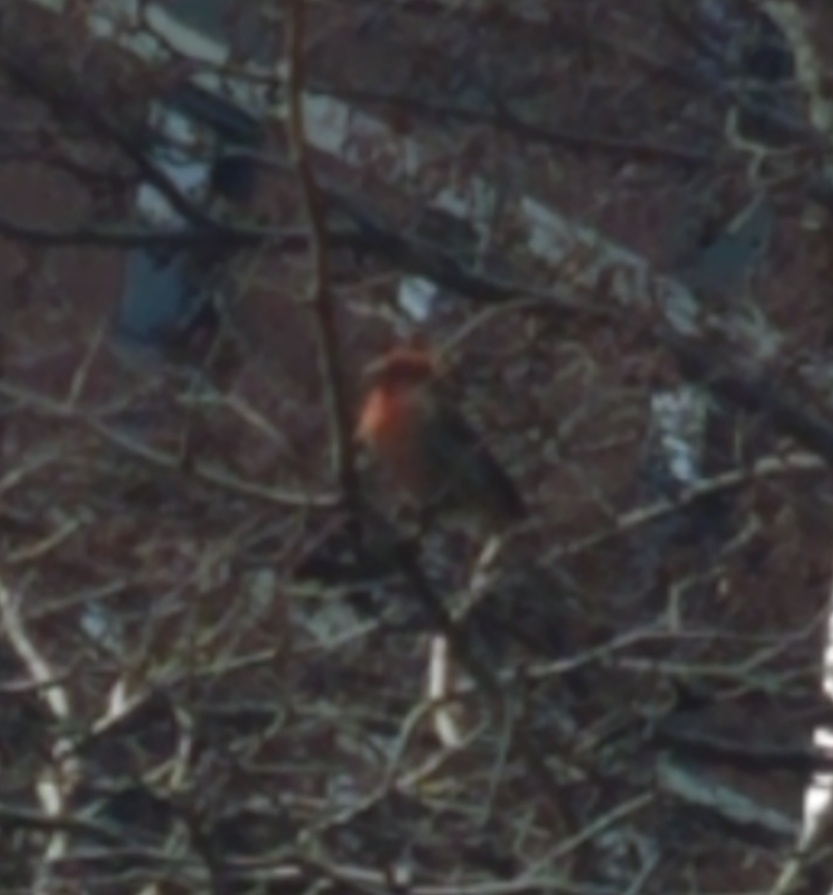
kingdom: Animalia
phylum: Chordata
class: Aves
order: Passeriformes
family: Fringillidae
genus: Haemorhous
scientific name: Haemorhous mexicanus
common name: House finch
